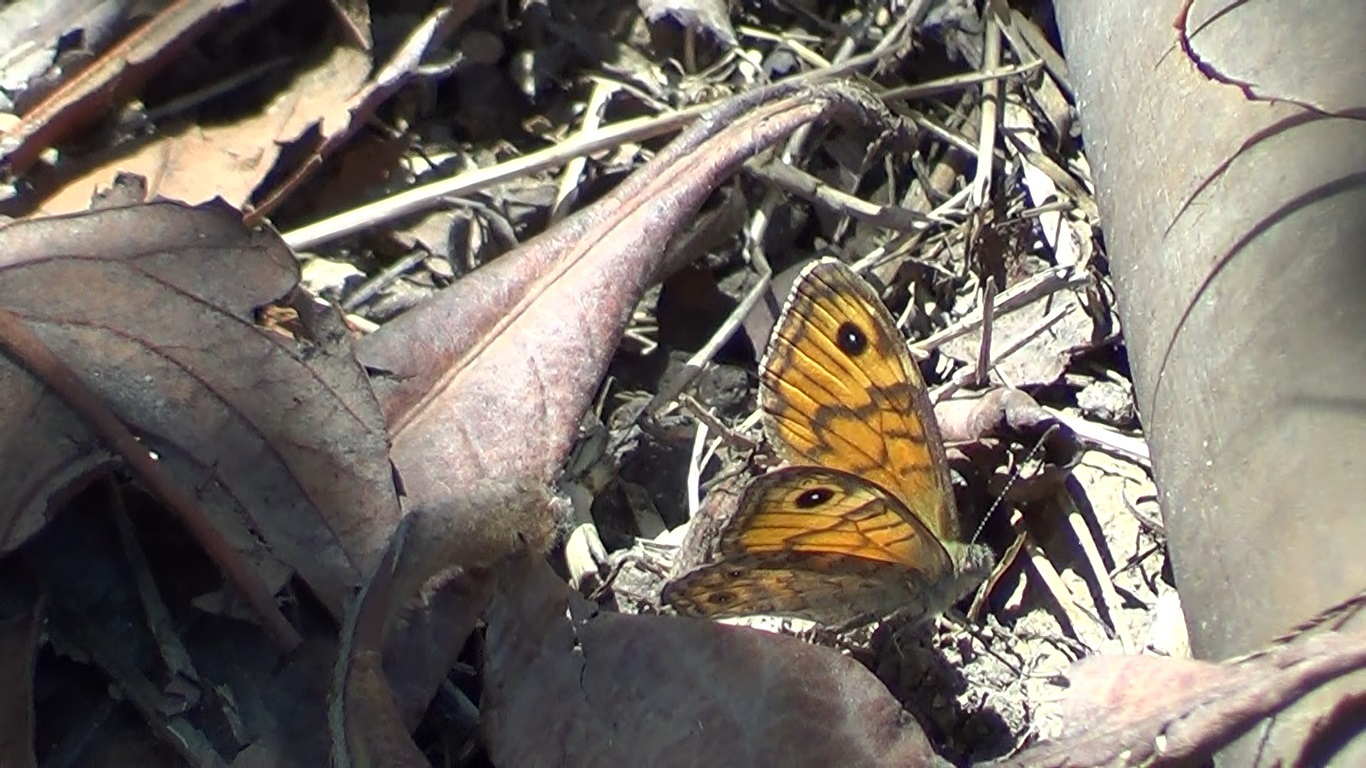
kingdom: Animalia
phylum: Arthropoda
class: Insecta
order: Lepidoptera
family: Nymphalidae
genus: Pararge
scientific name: Pararge Lasiommata megera
